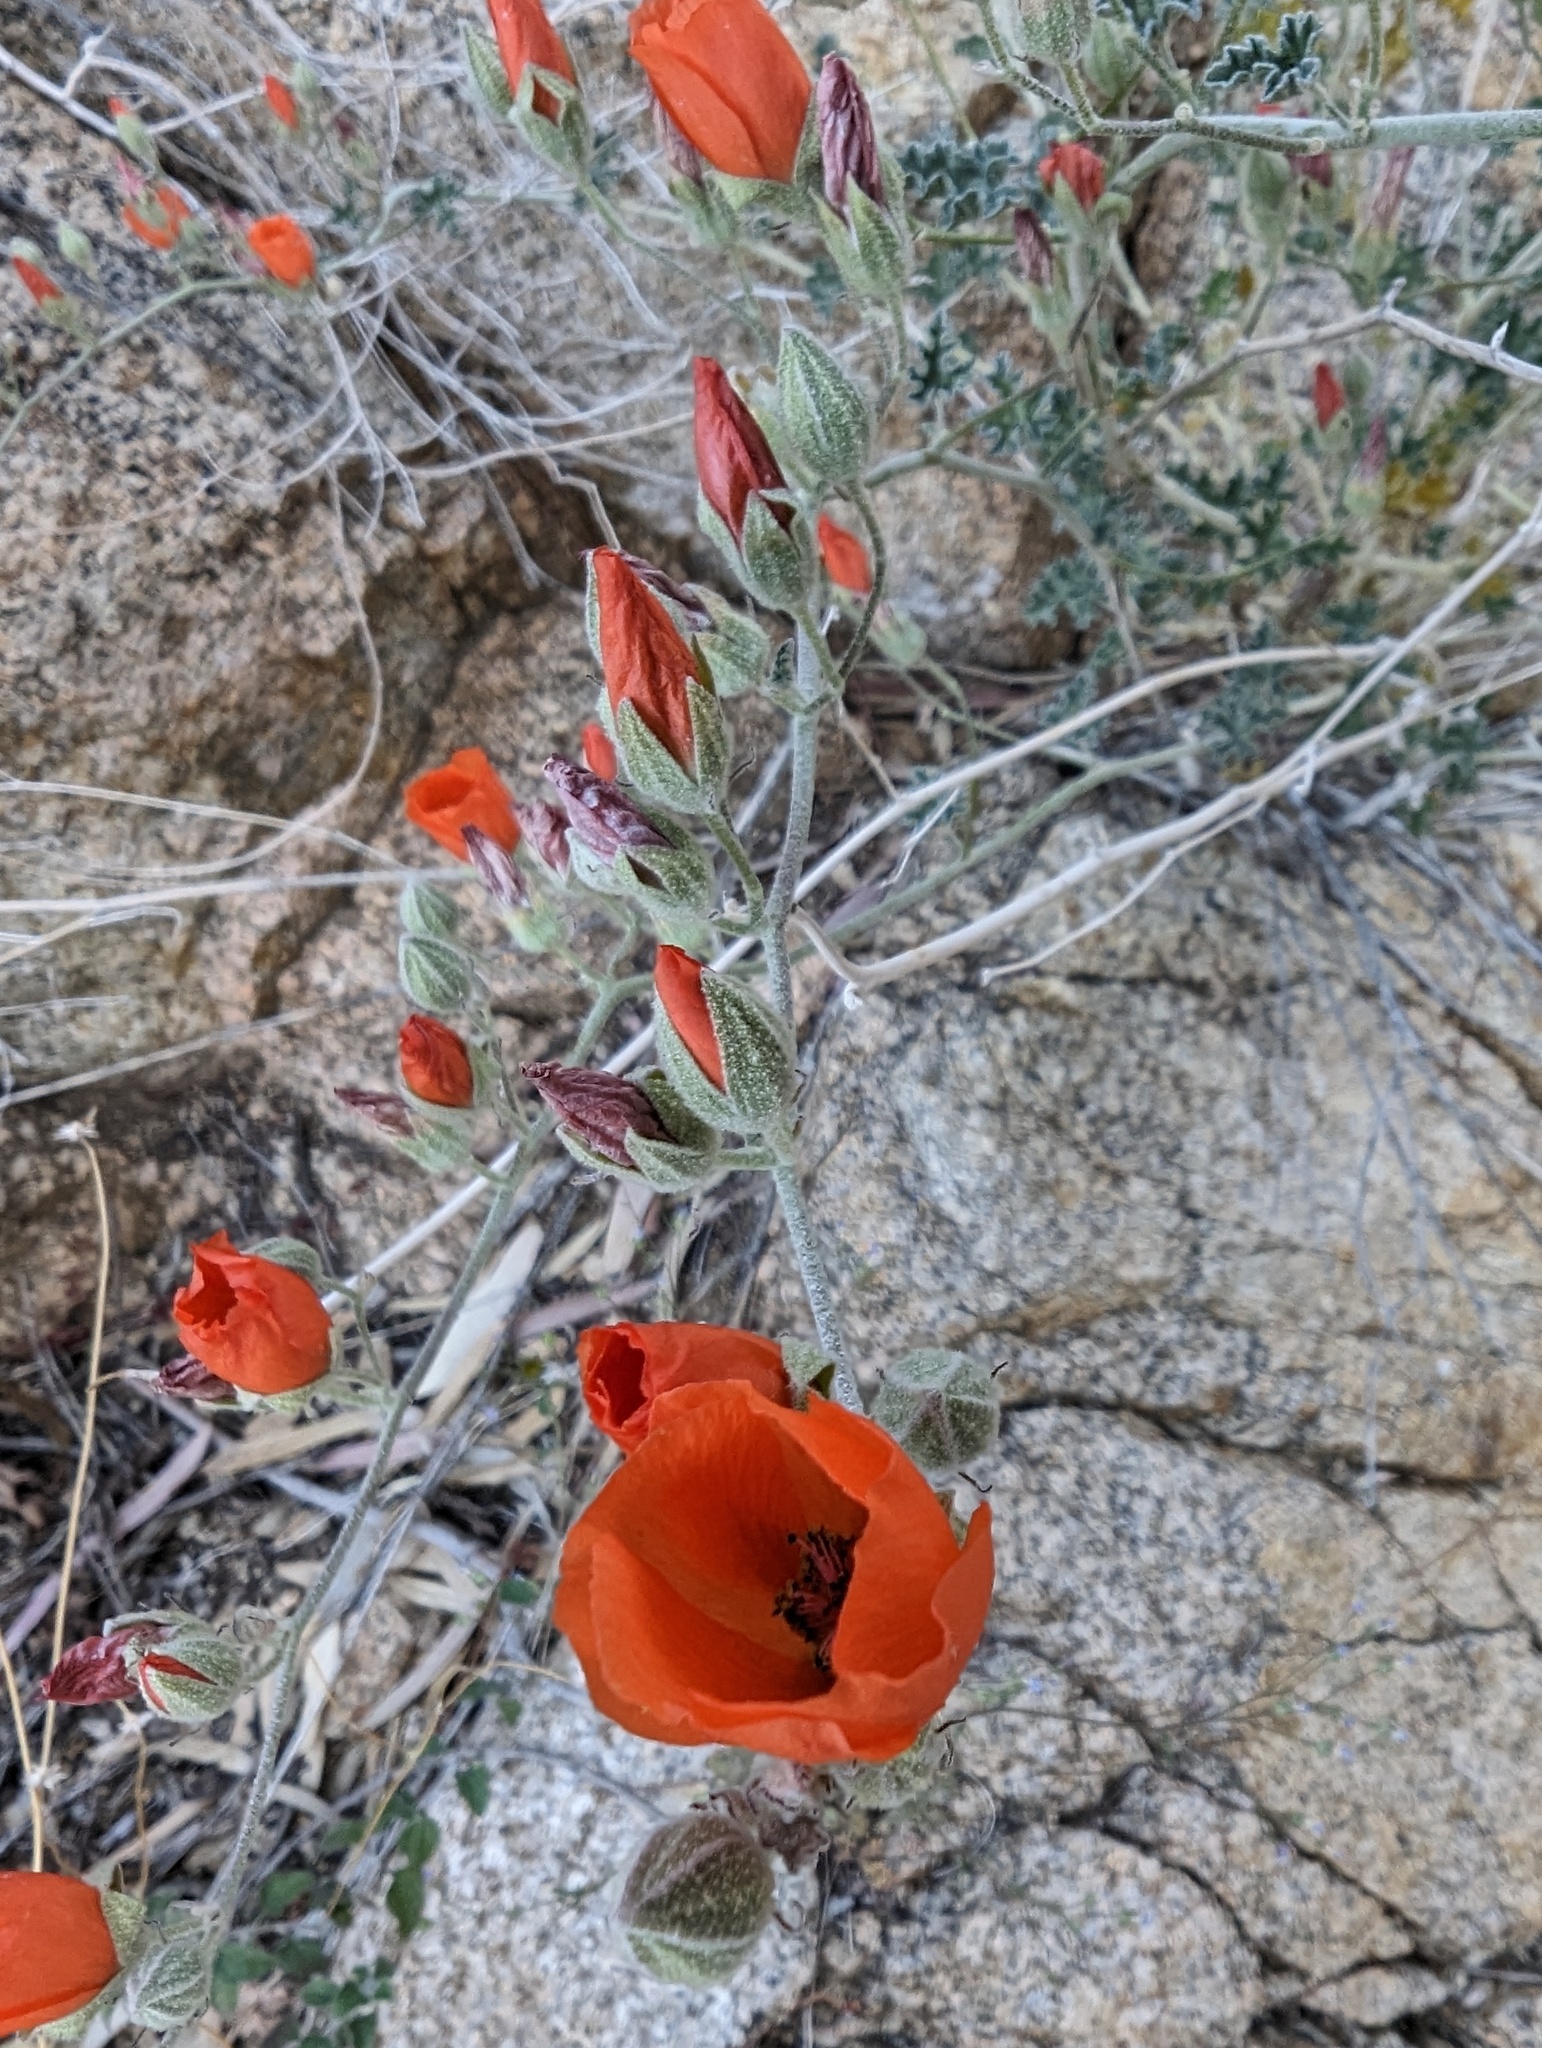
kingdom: Plantae
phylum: Tracheophyta
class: Magnoliopsida
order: Malvales
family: Malvaceae
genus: Sphaeralcea
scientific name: Sphaeralcea ambigua
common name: Apricot globe-mallow
